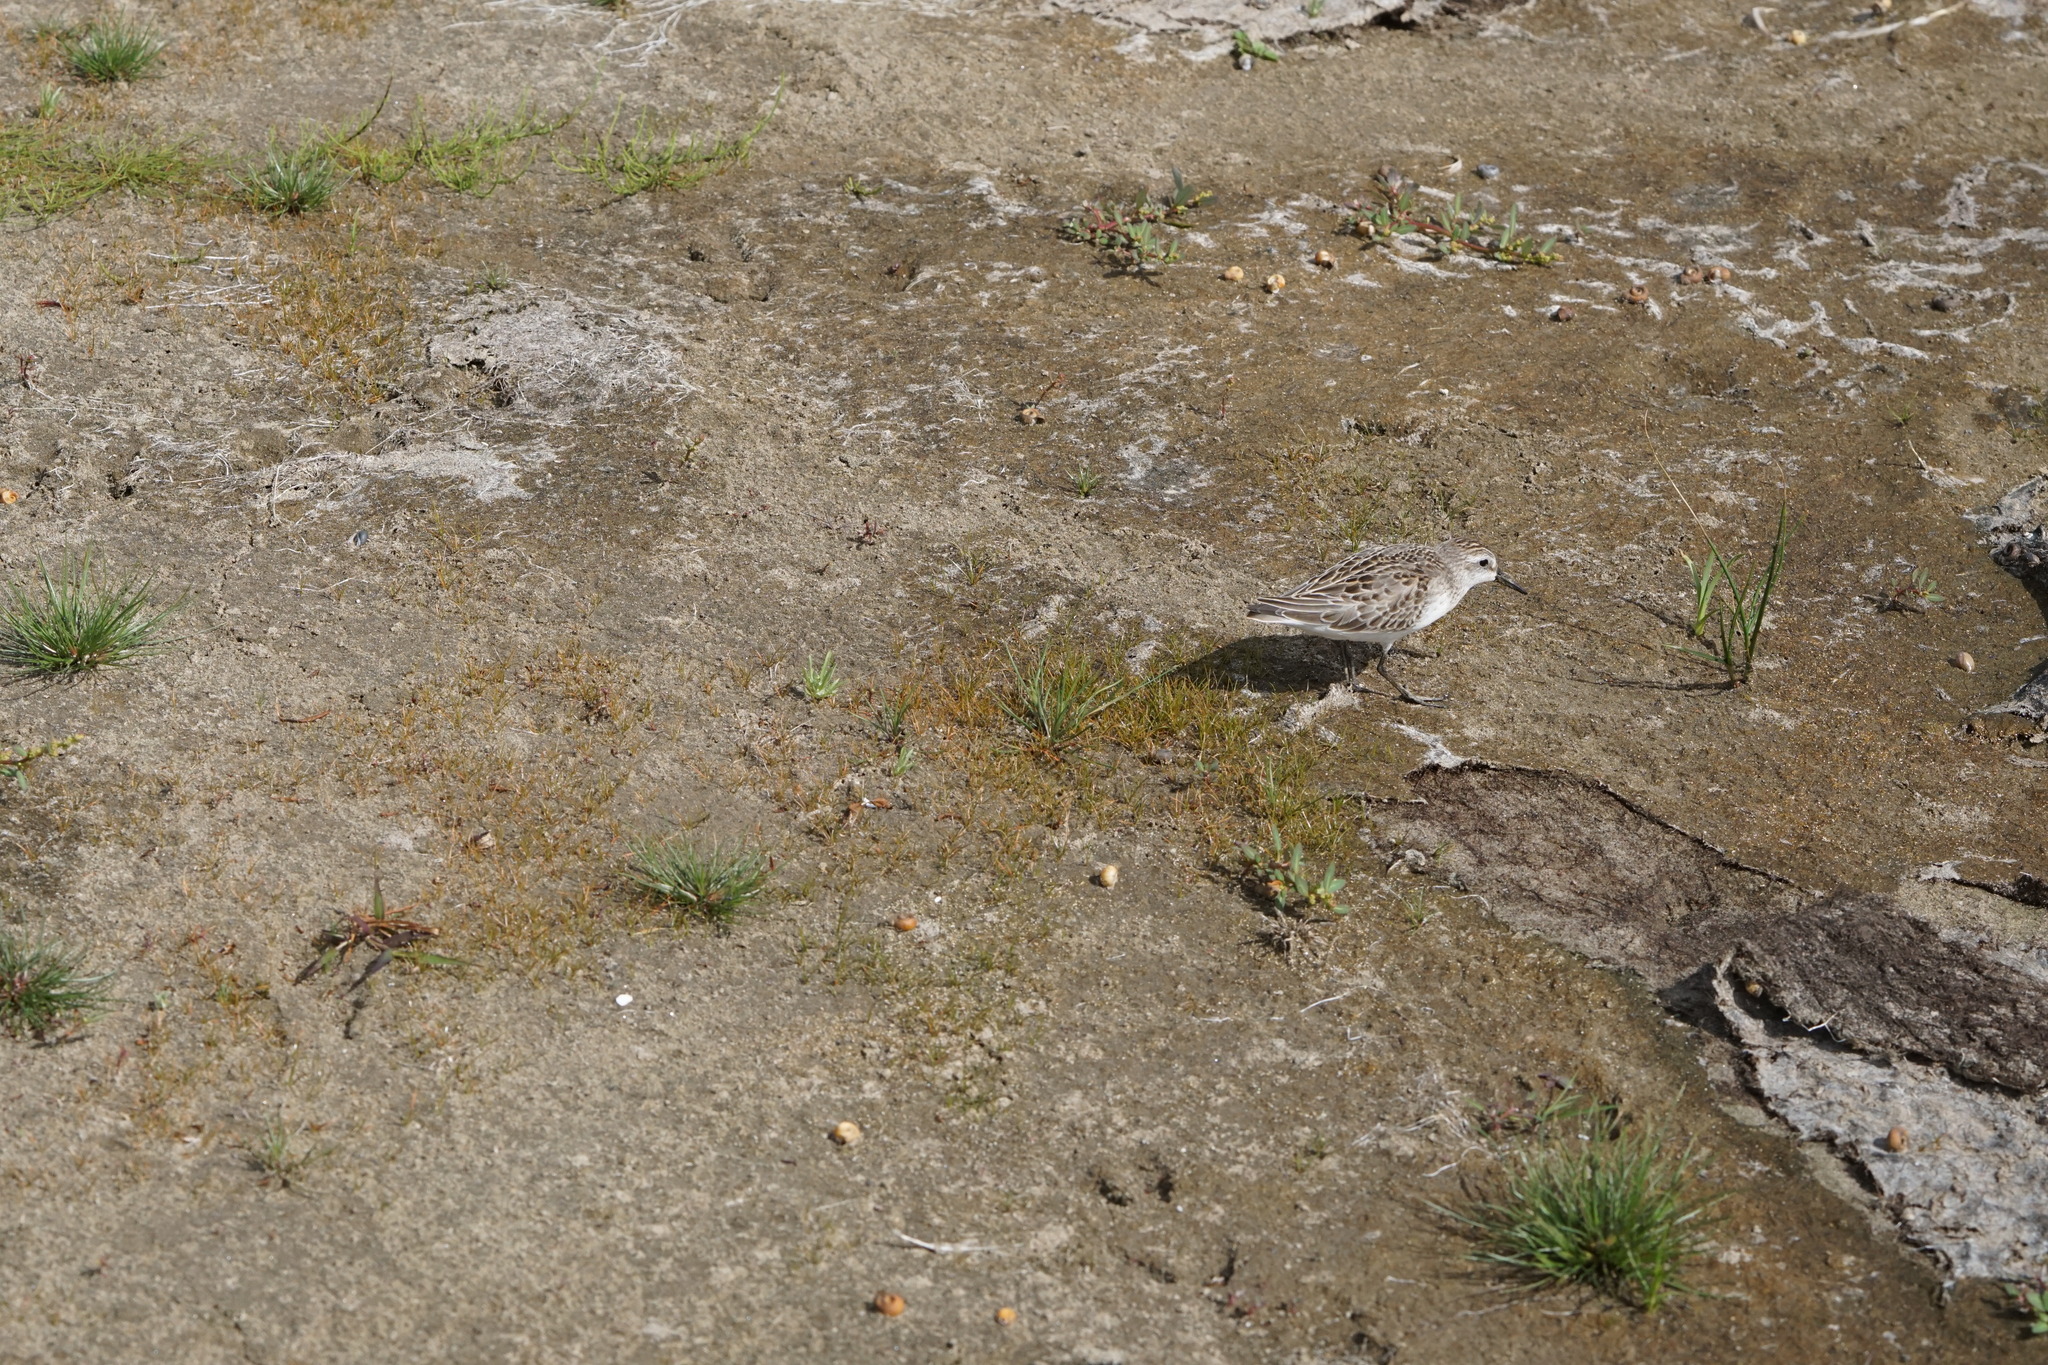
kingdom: Animalia
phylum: Chordata
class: Aves
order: Charadriiformes
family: Scolopacidae
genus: Calidris
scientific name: Calidris pusilla
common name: Semipalmated sandpiper
